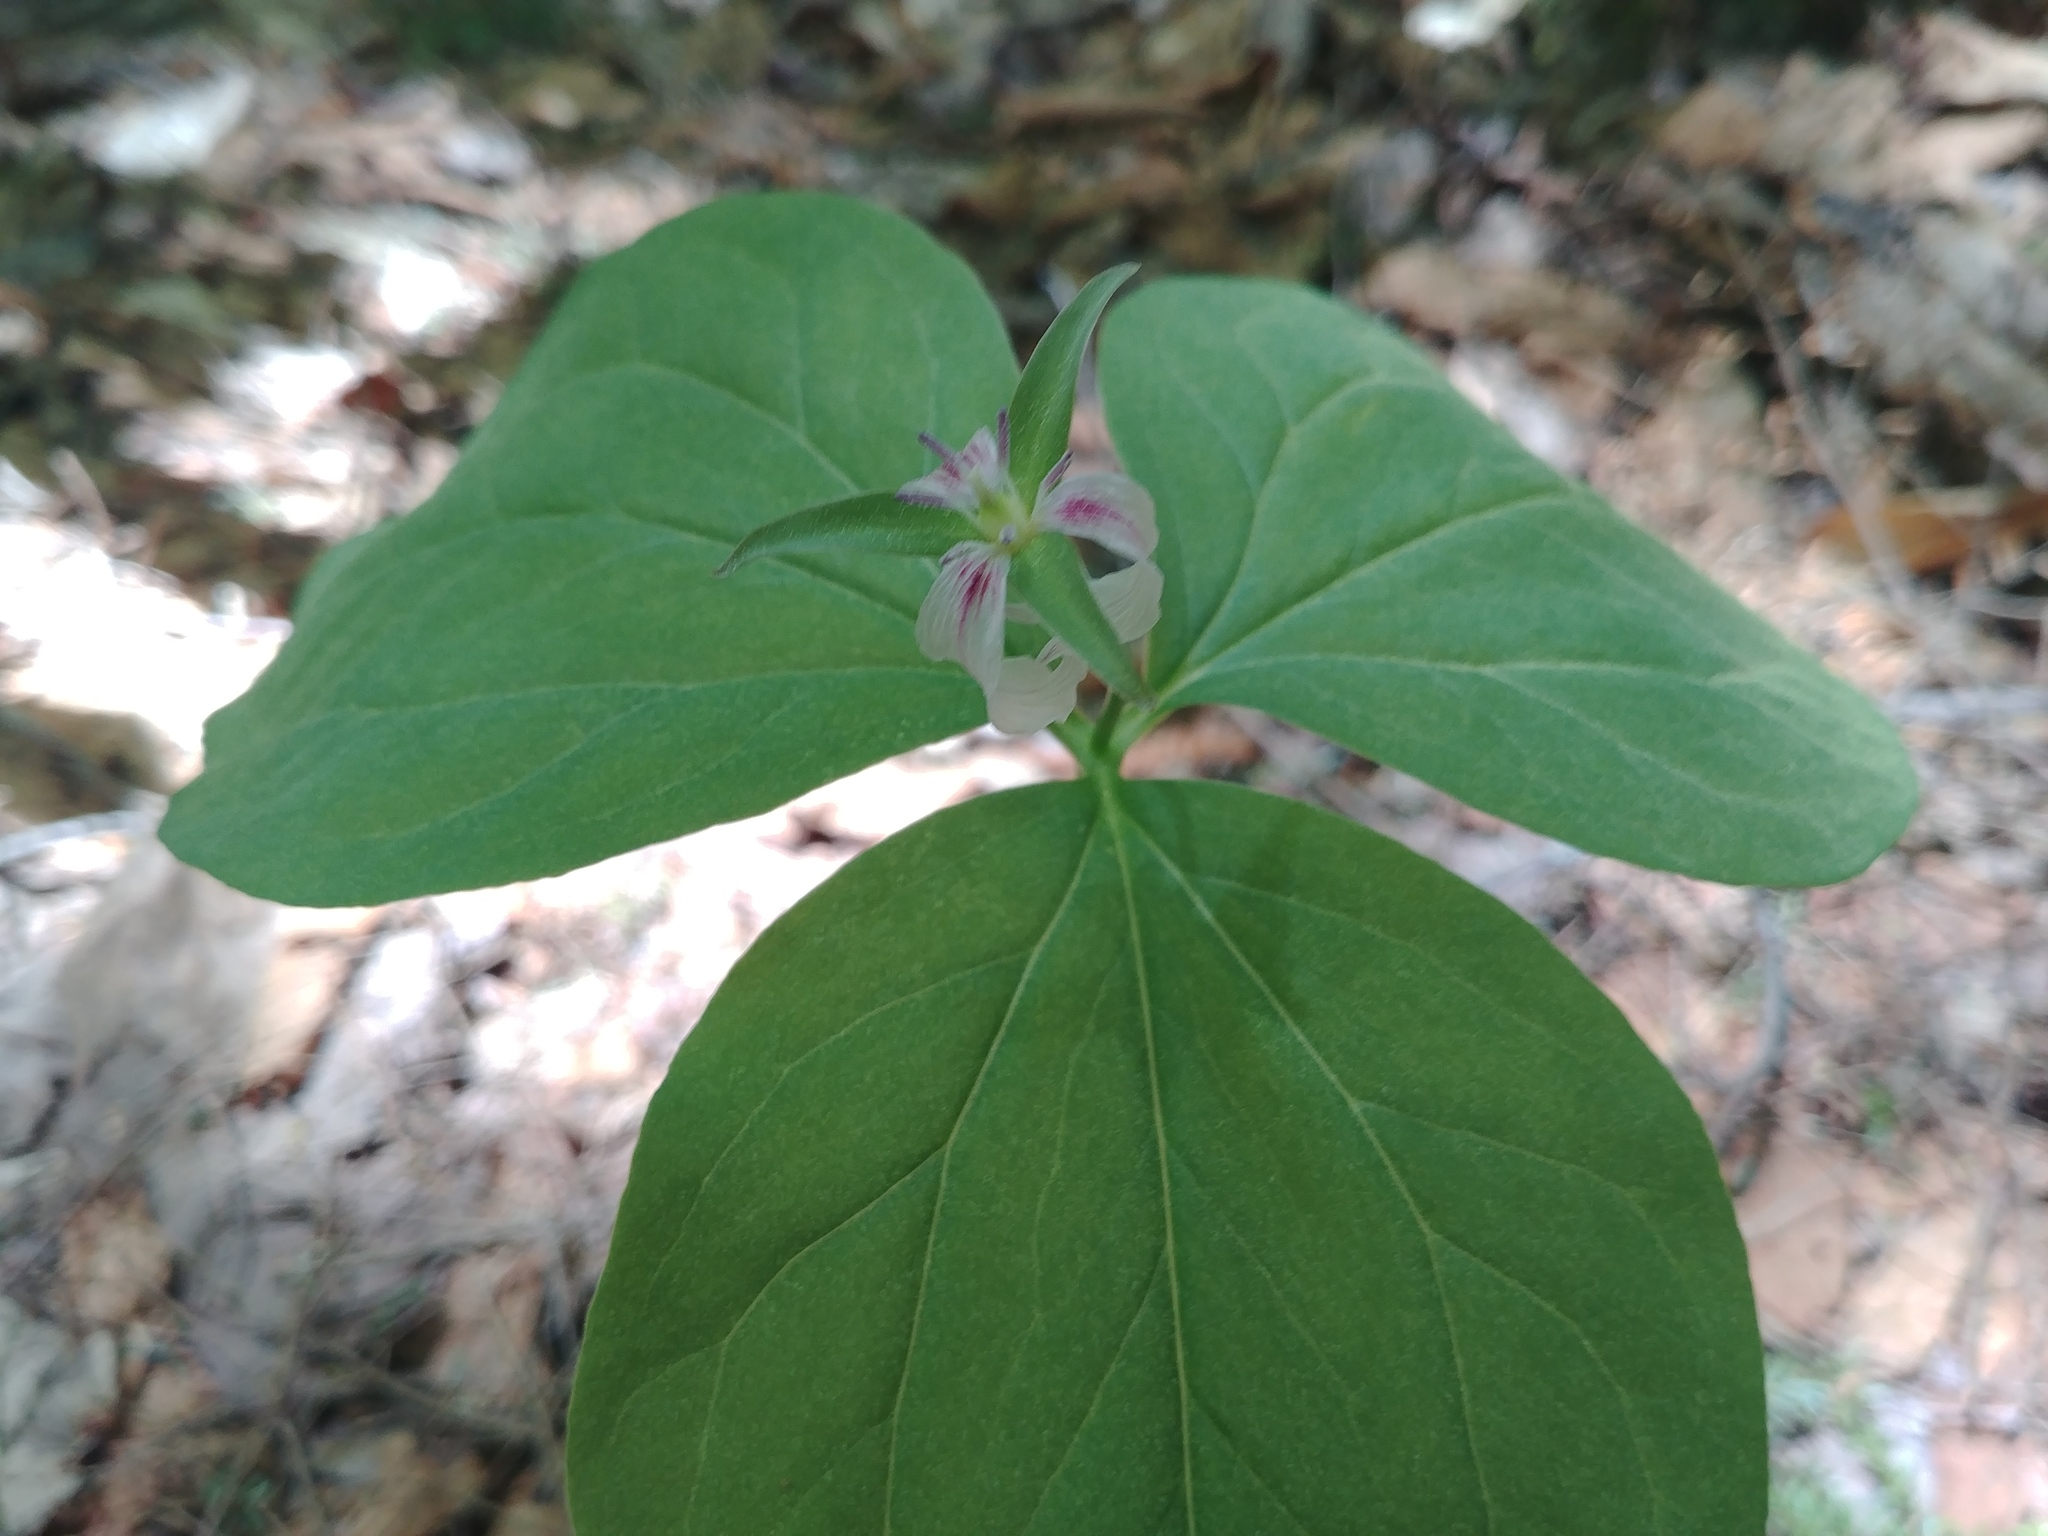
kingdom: Plantae
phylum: Tracheophyta
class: Liliopsida
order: Liliales
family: Melanthiaceae
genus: Trillium
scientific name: Trillium undulatum
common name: Paint trillium
